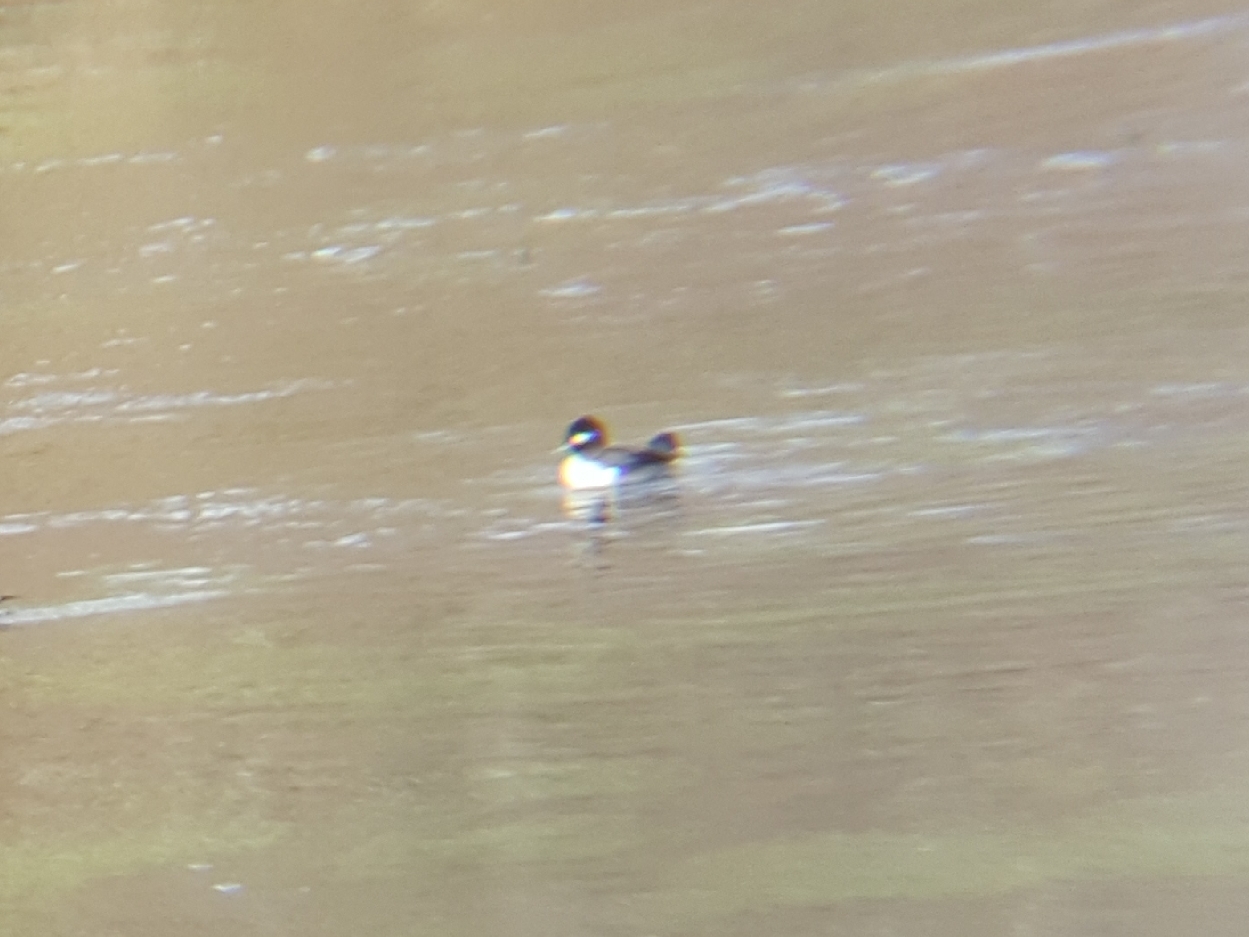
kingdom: Animalia
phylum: Chordata
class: Aves
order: Anseriformes
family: Anatidae
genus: Bucephala
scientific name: Bucephala albeola
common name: Bufflehead
